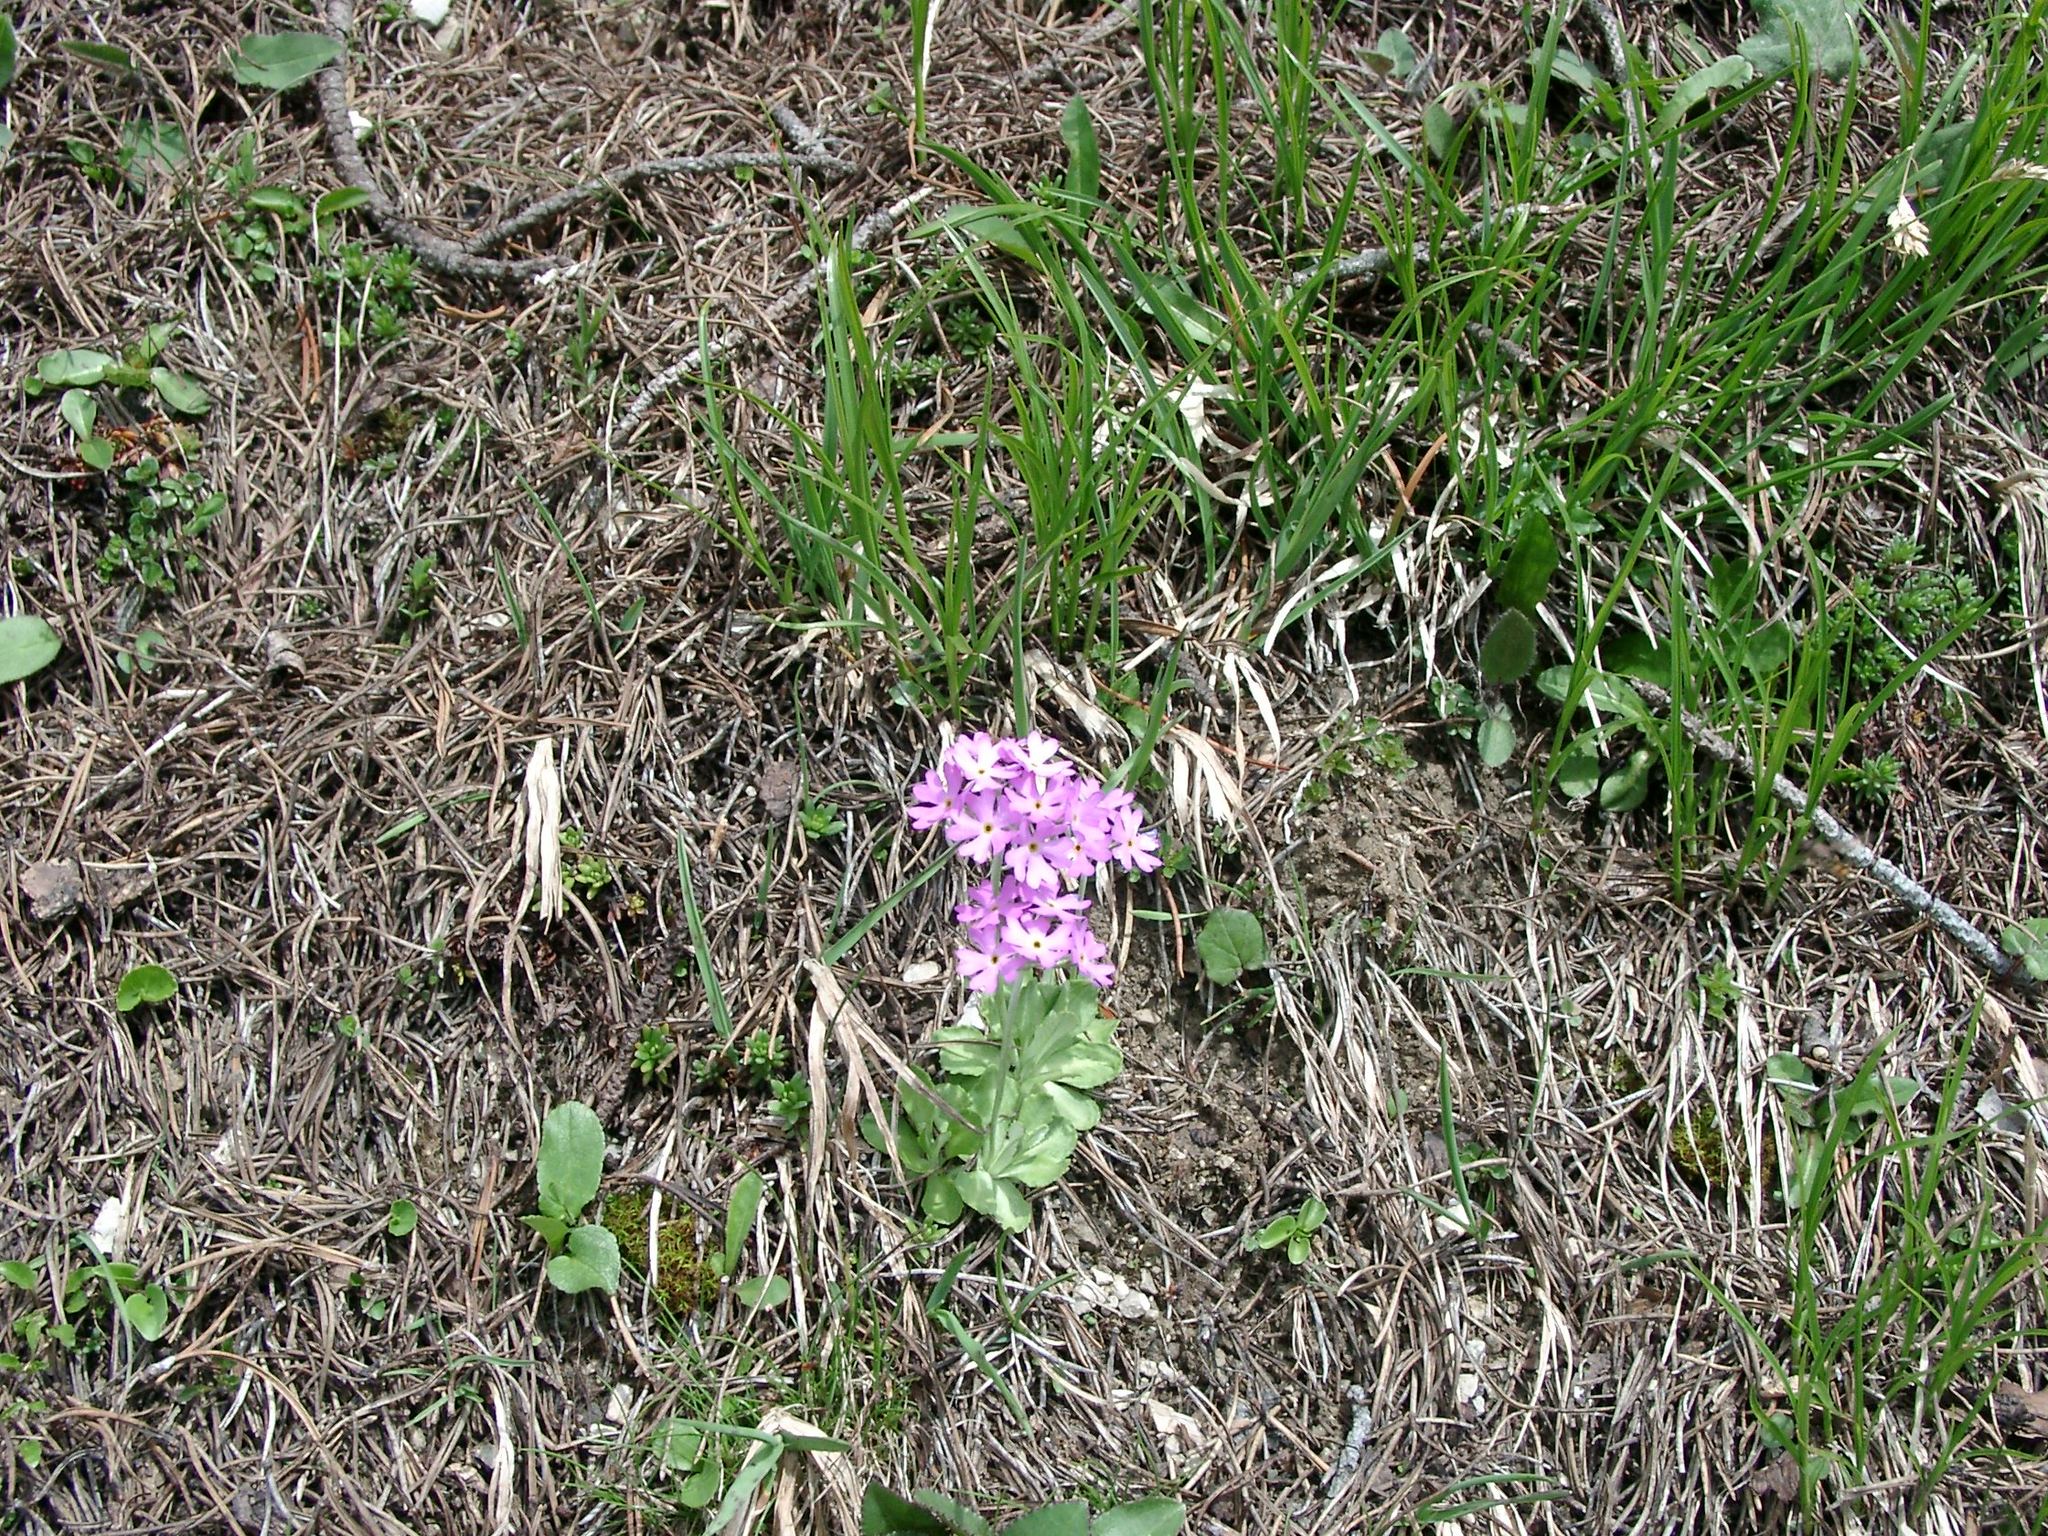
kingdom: Plantae
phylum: Tracheophyta
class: Magnoliopsida
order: Ericales
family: Primulaceae
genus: Primula
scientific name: Primula farinosa
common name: Bird's-eye primrose
